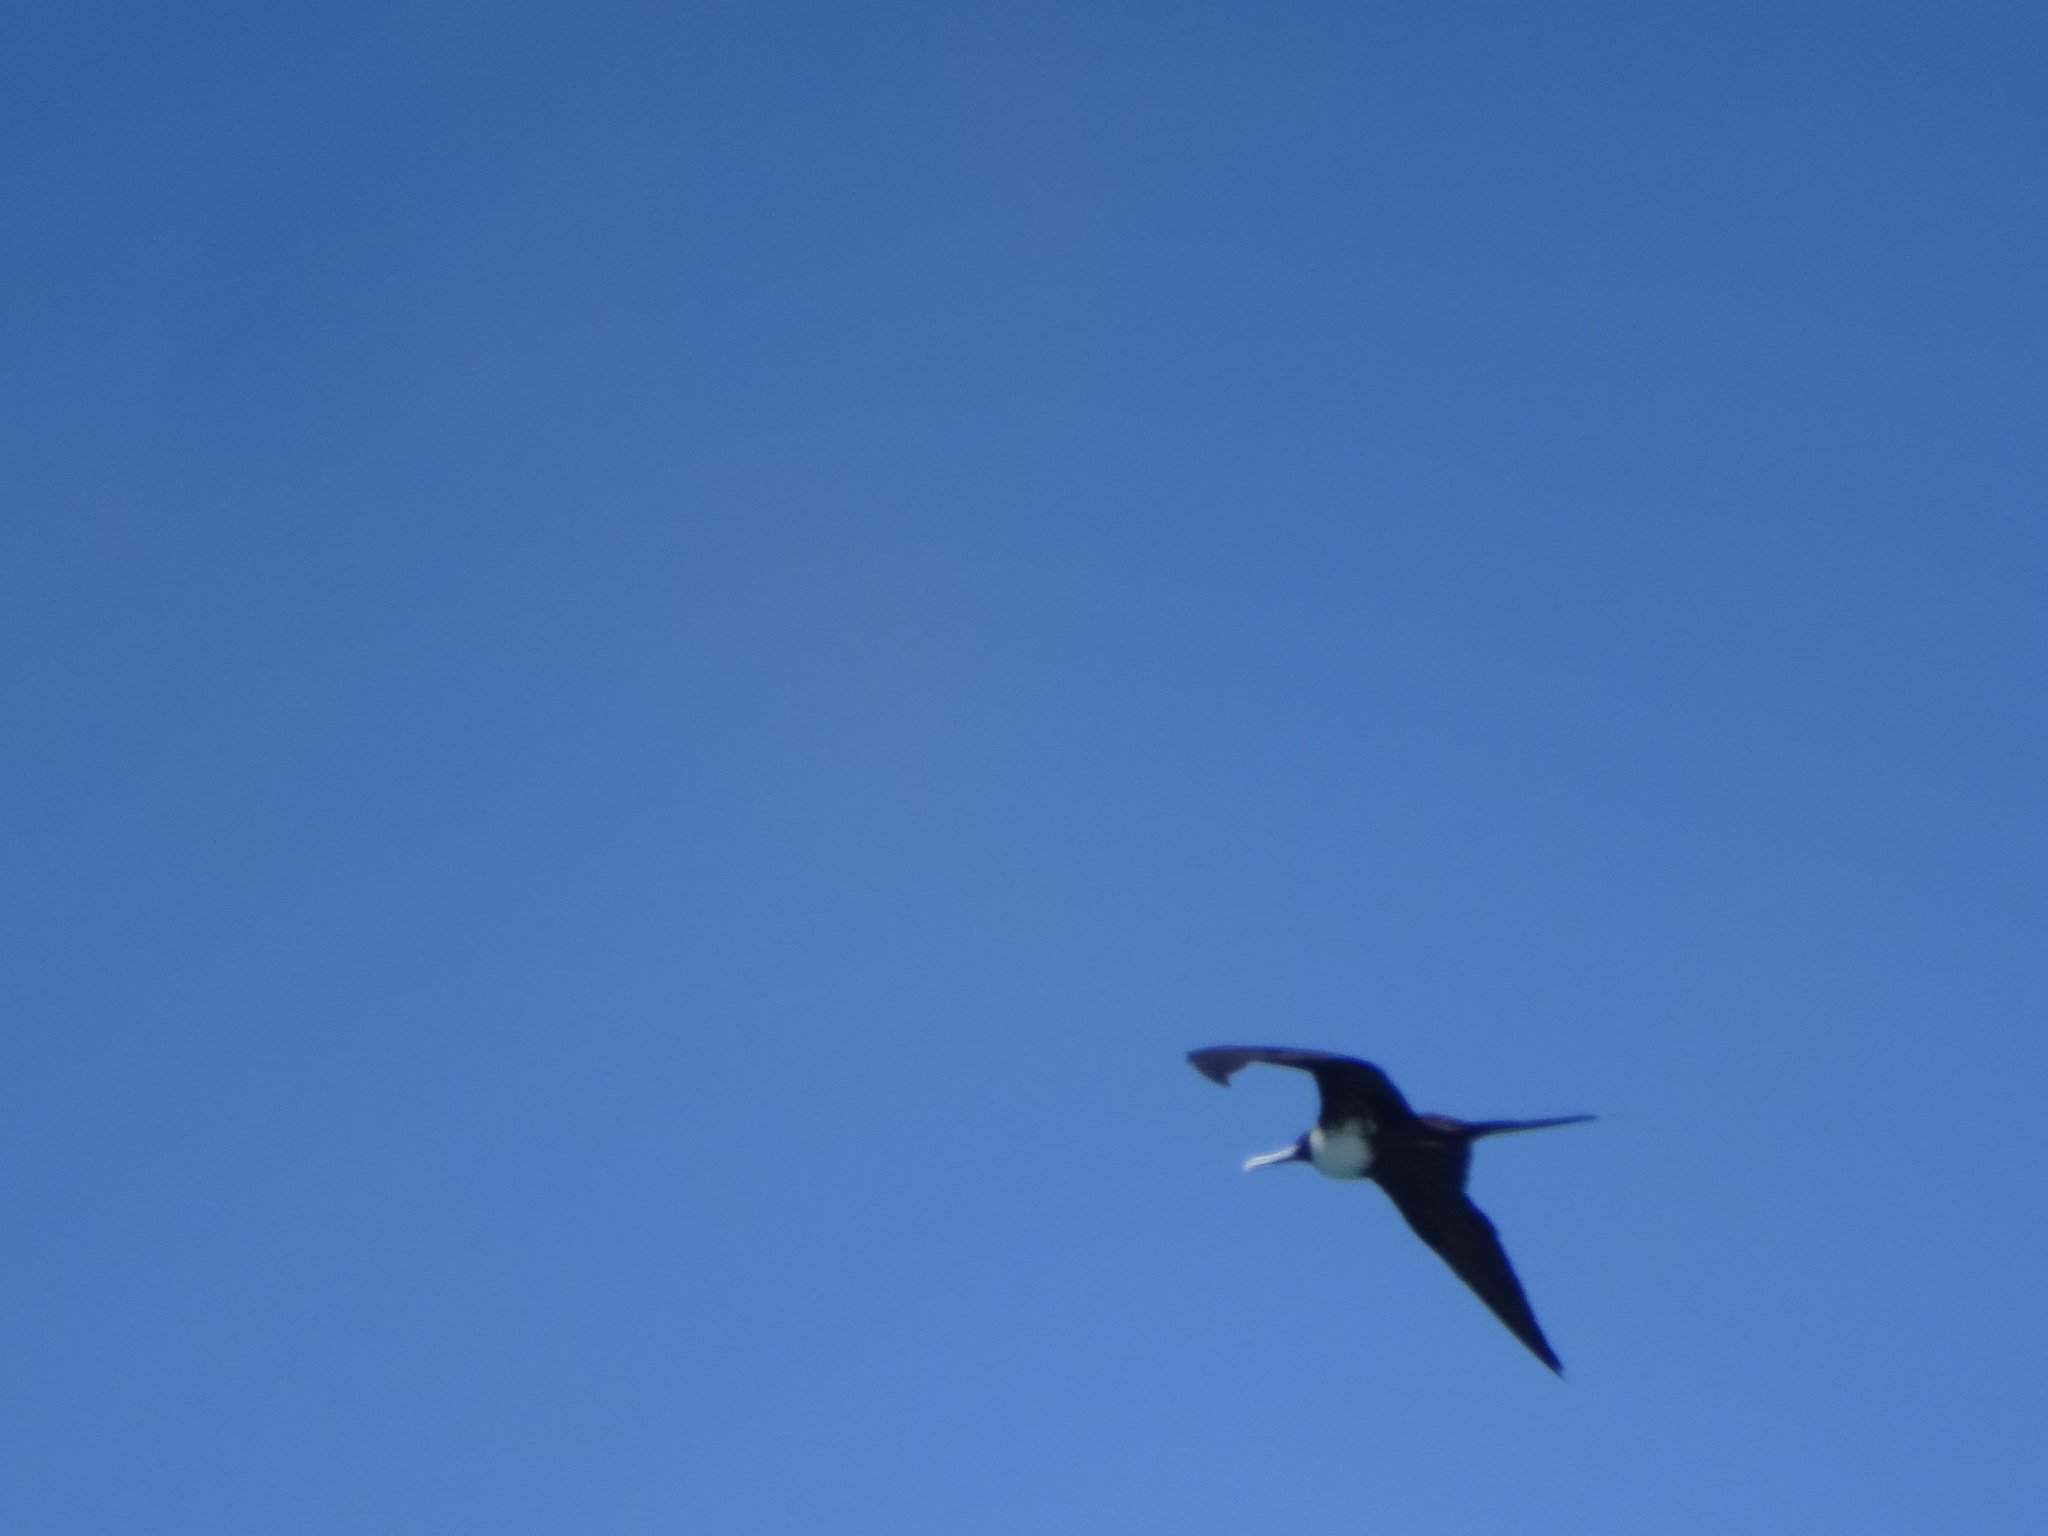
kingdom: Animalia
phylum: Chordata
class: Aves
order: Suliformes
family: Fregatidae
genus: Fregata
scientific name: Fregata magnificens
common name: Magnificent frigatebird
